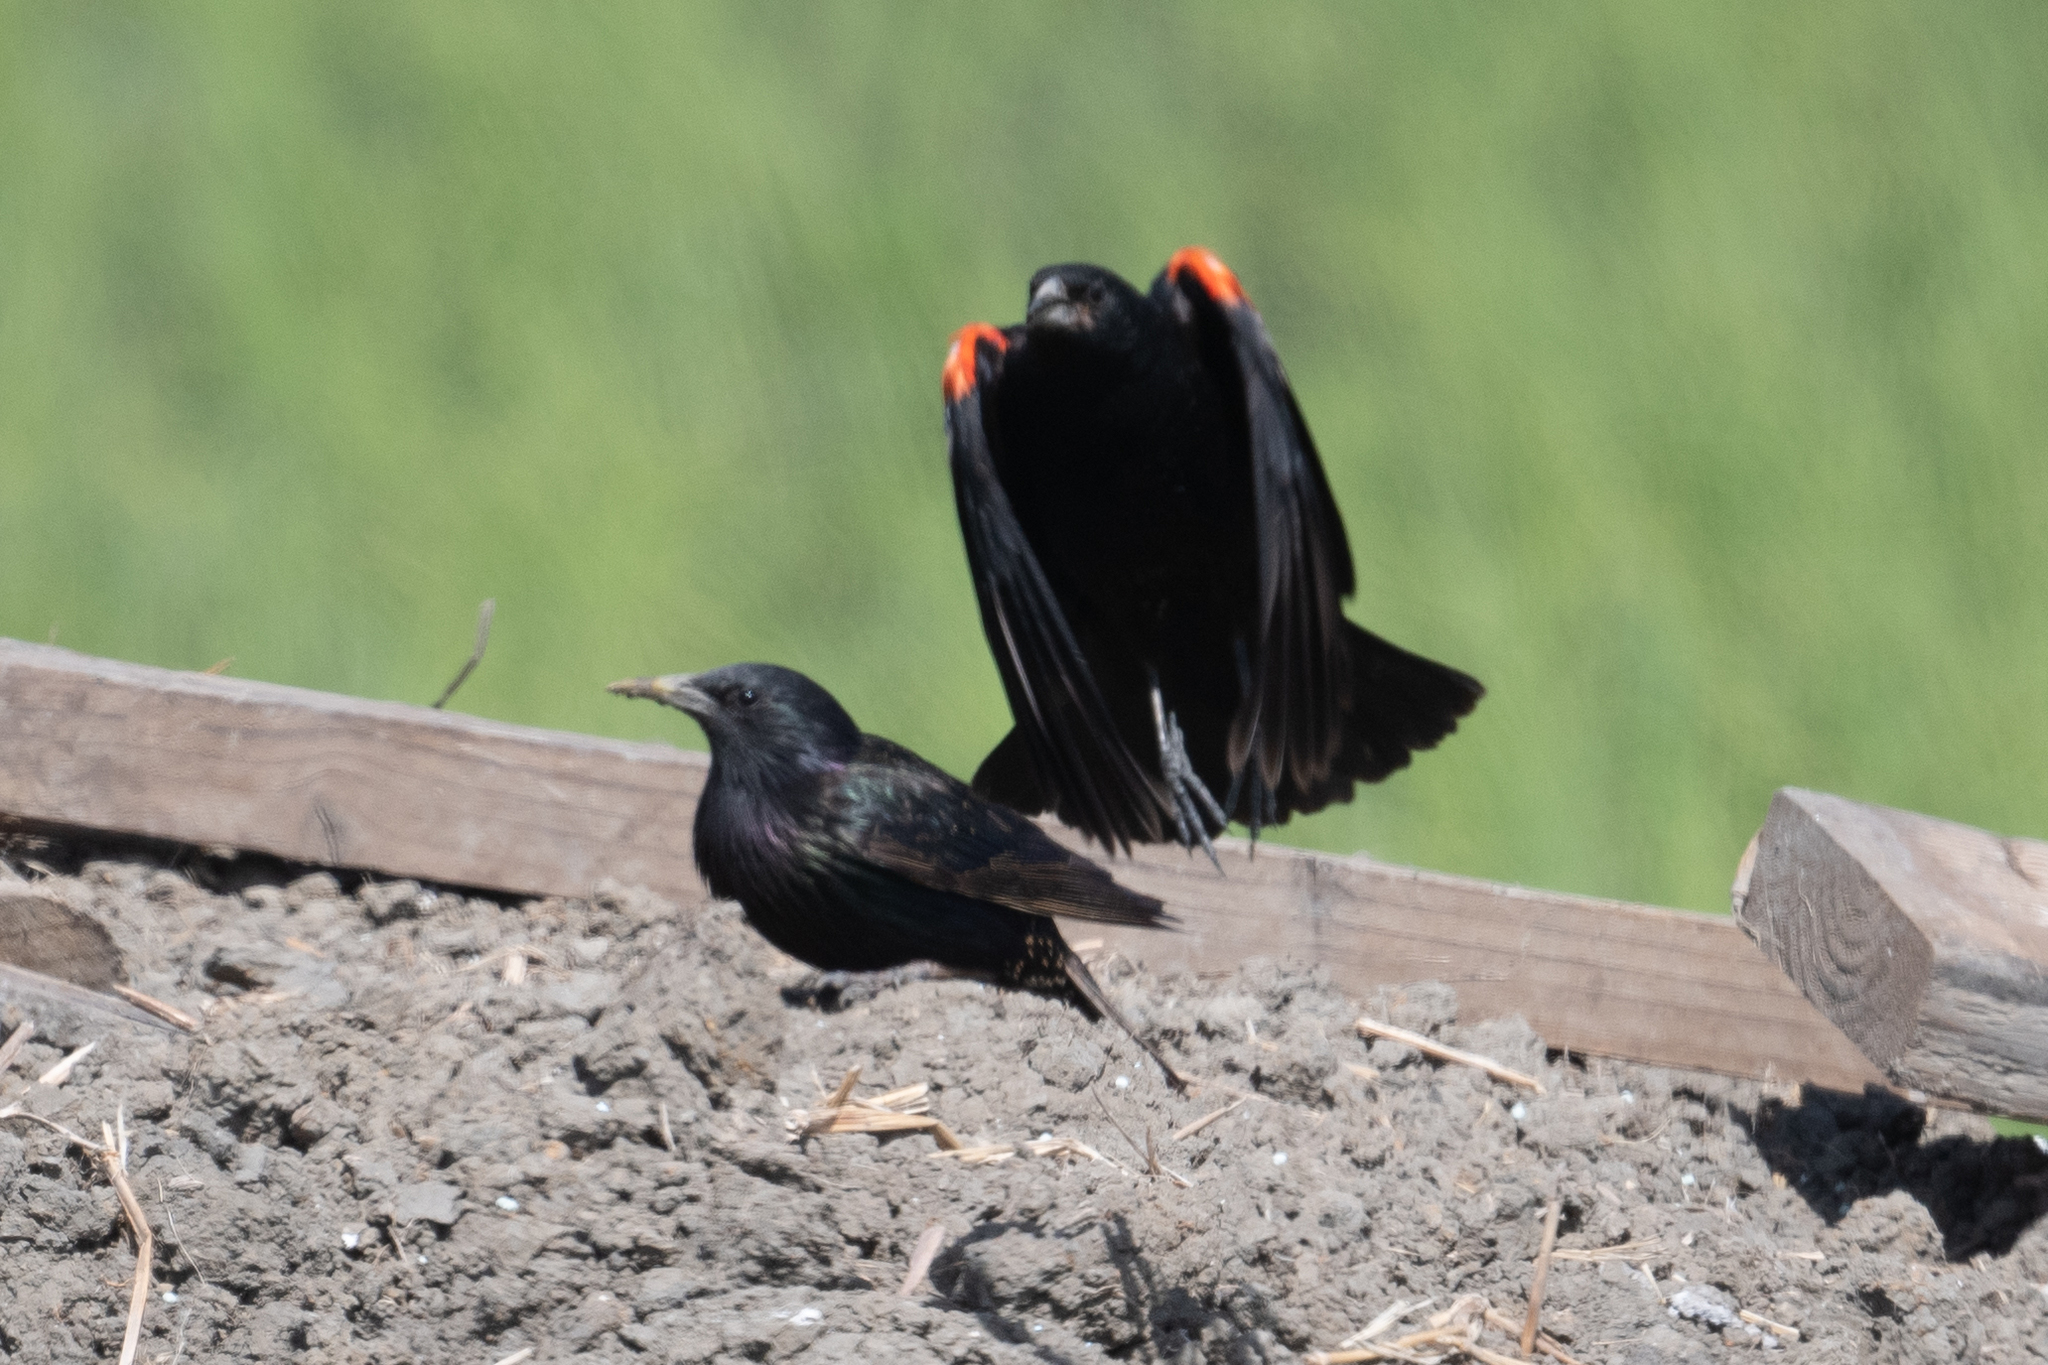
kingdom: Animalia
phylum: Chordata
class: Aves
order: Passeriformes
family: Icteridae
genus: Agelaius
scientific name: Agelaius phoeniceus
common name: Red-winged blackbird
